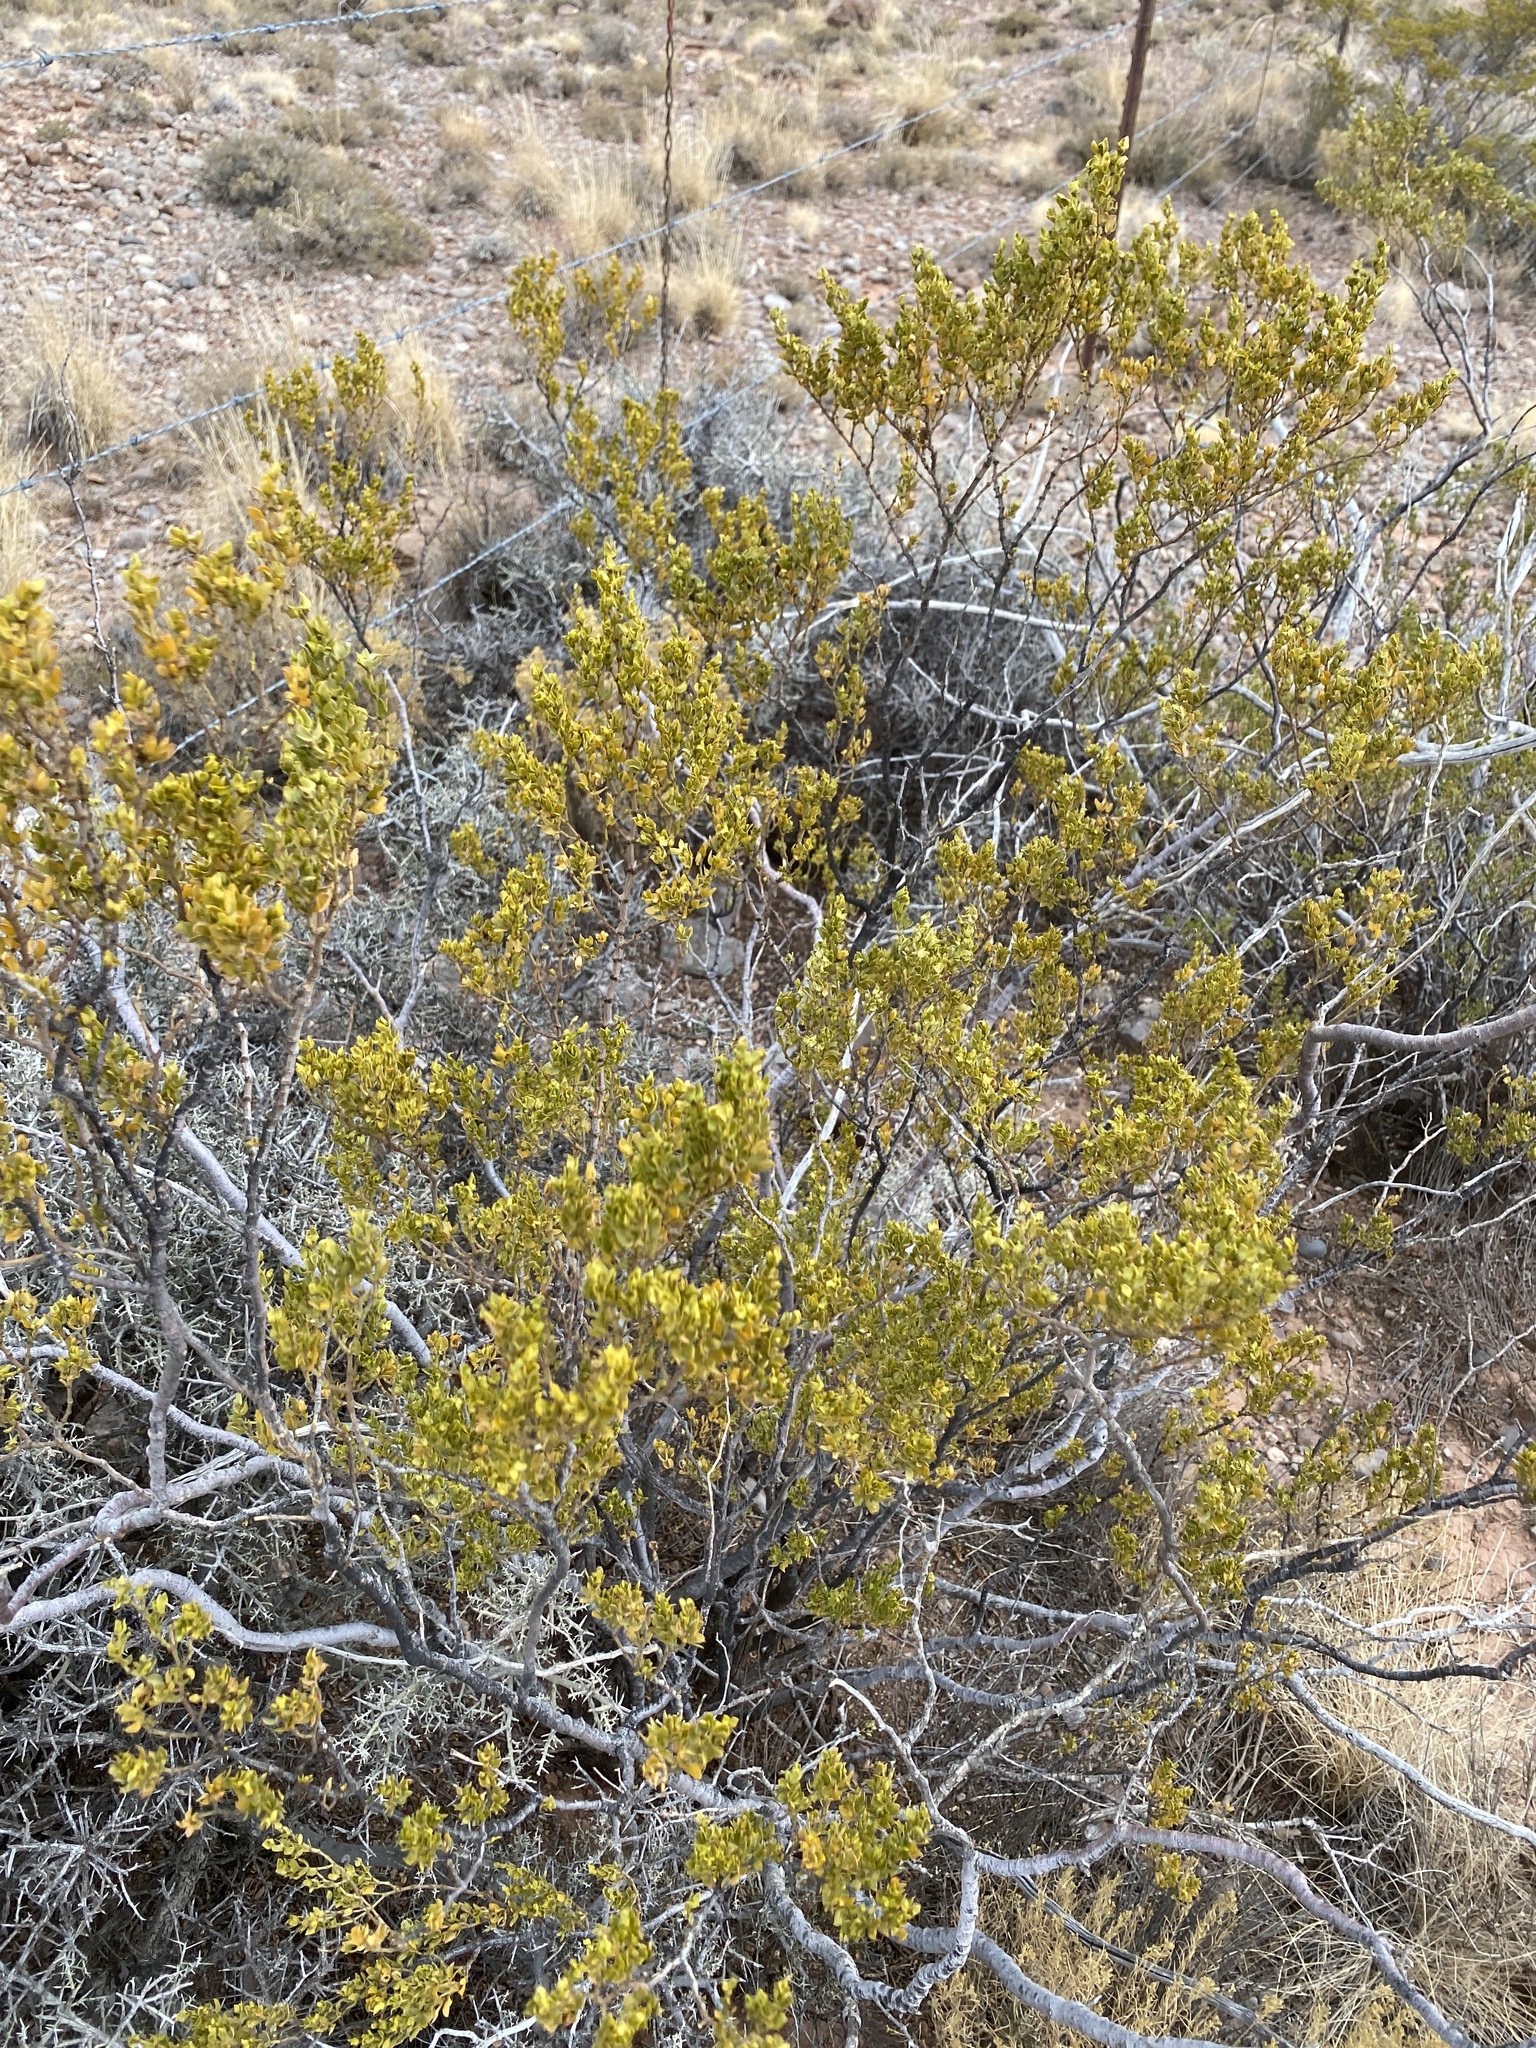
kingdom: Plantae
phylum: Tracheophyta
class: Magnoliopsida
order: Zygophyllales
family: Zygophyllaceae
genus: Larrea
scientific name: Larrea tridentata
